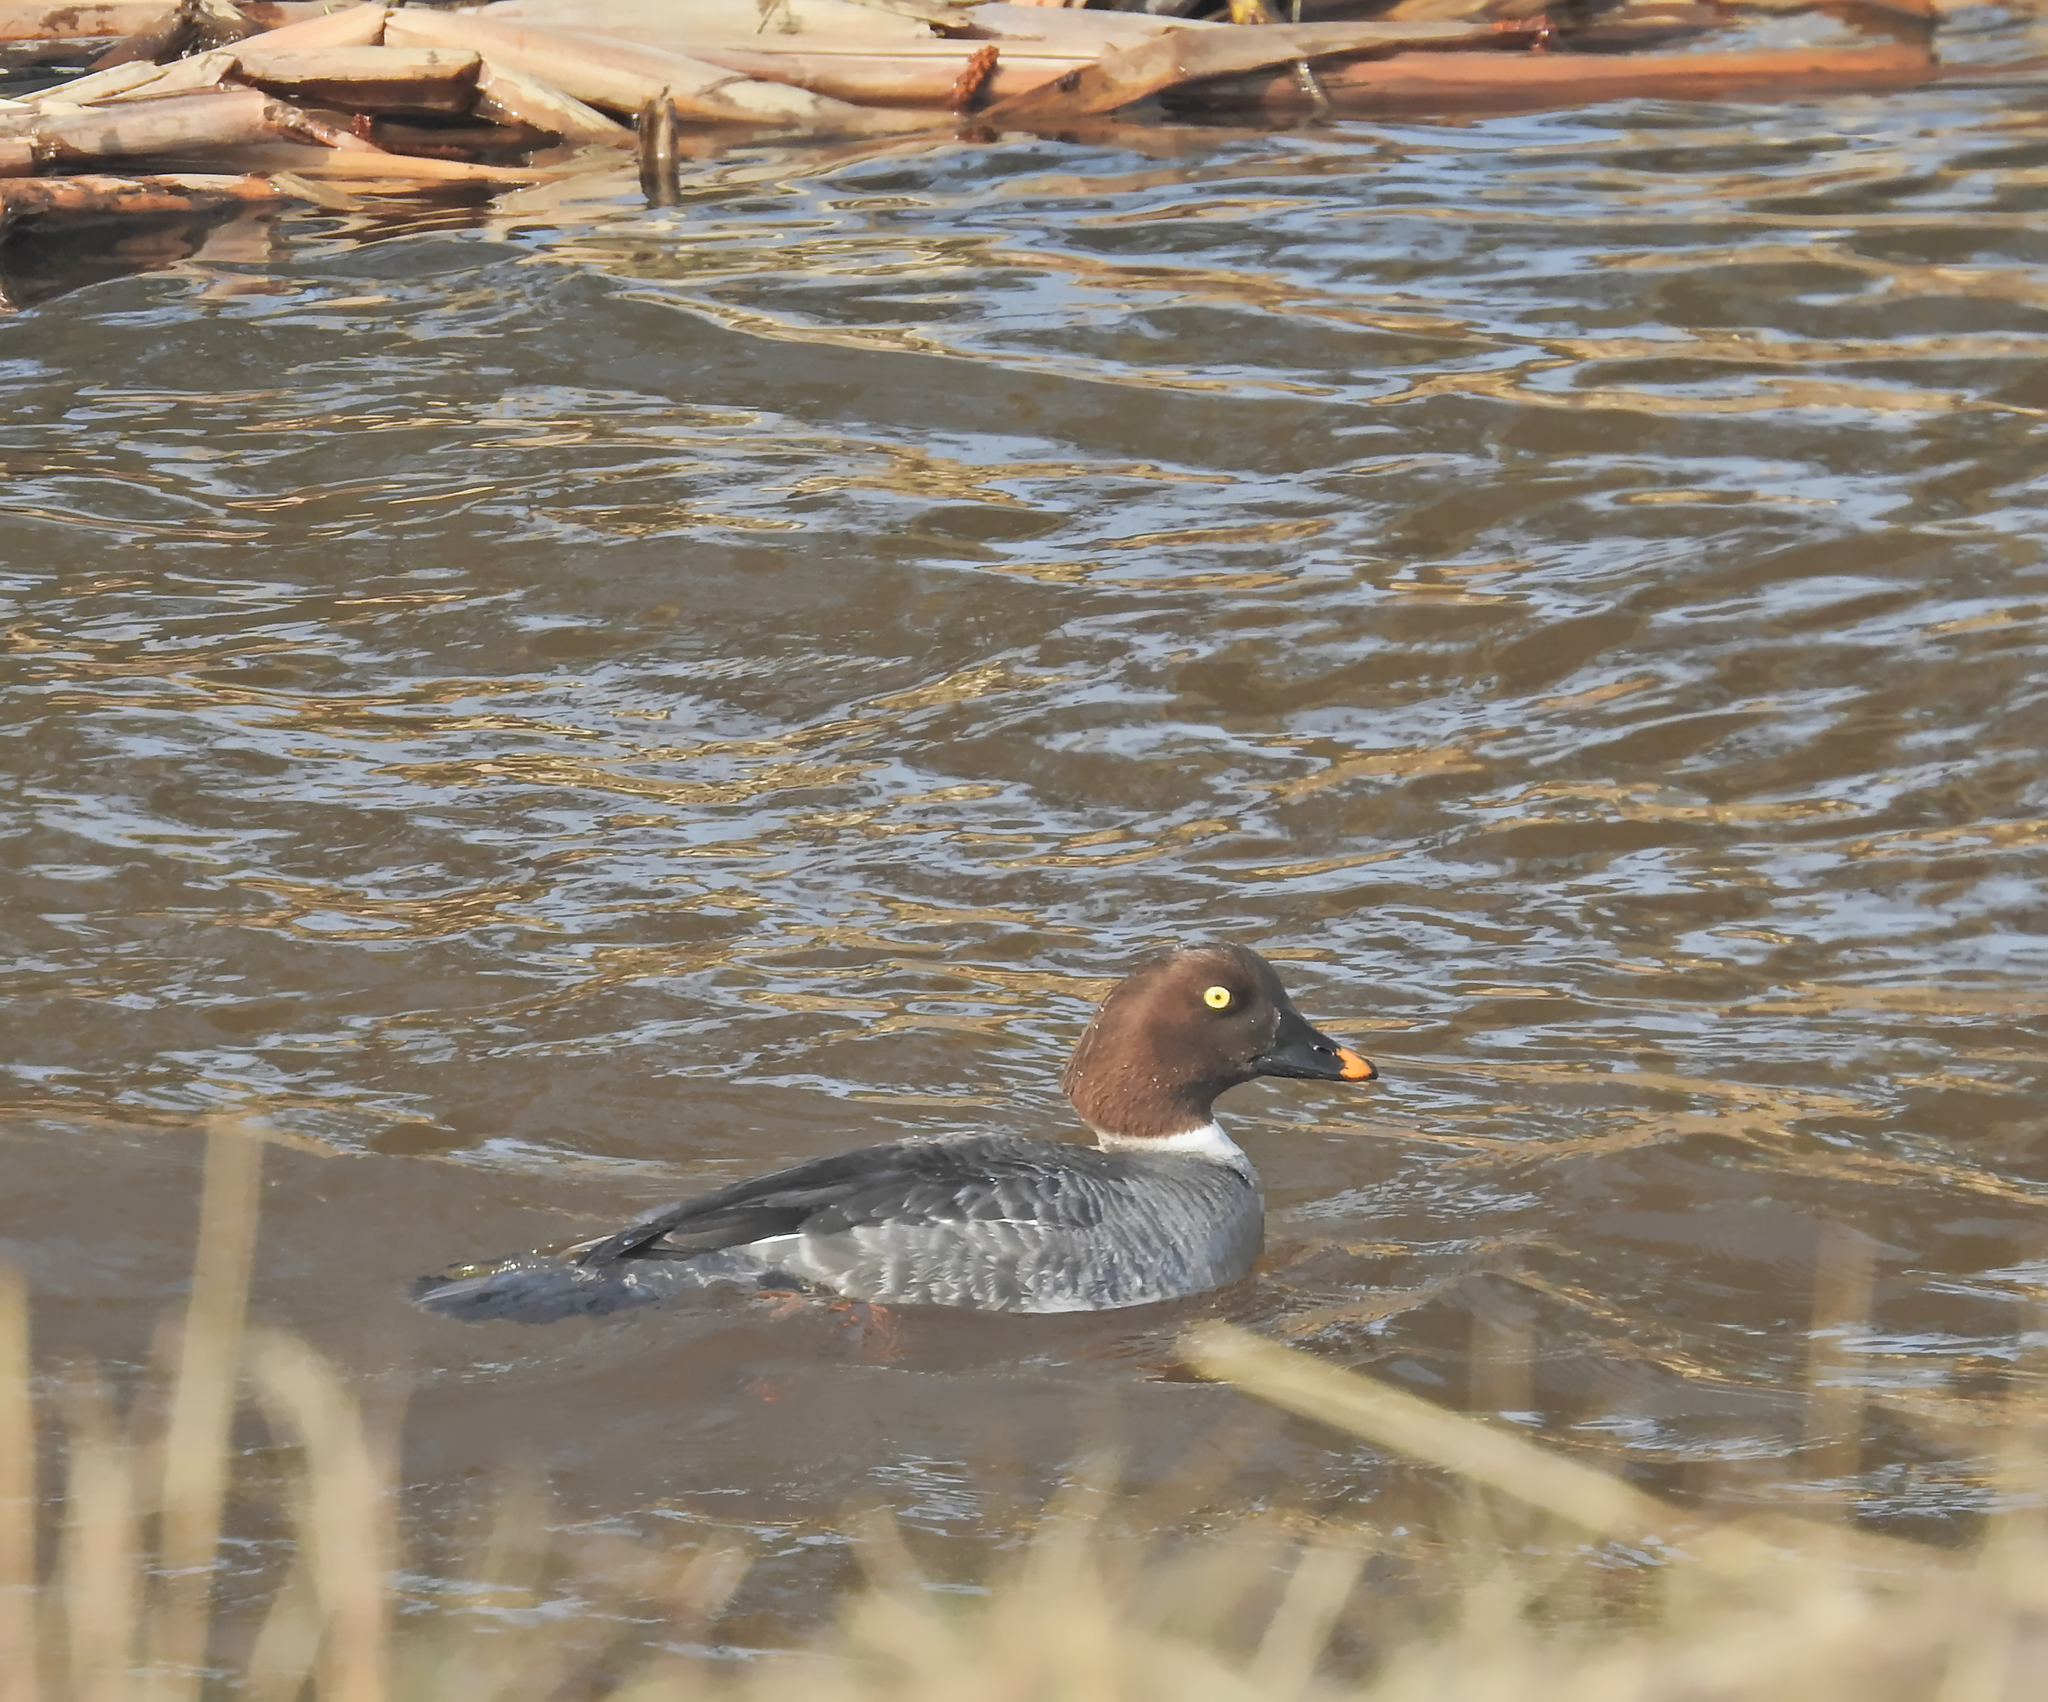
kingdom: Animalia
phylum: Chordata
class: Aves
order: Anseriformes
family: Anatidae
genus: Bucephala
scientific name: Bucephala clangula
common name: Common goldeneye
